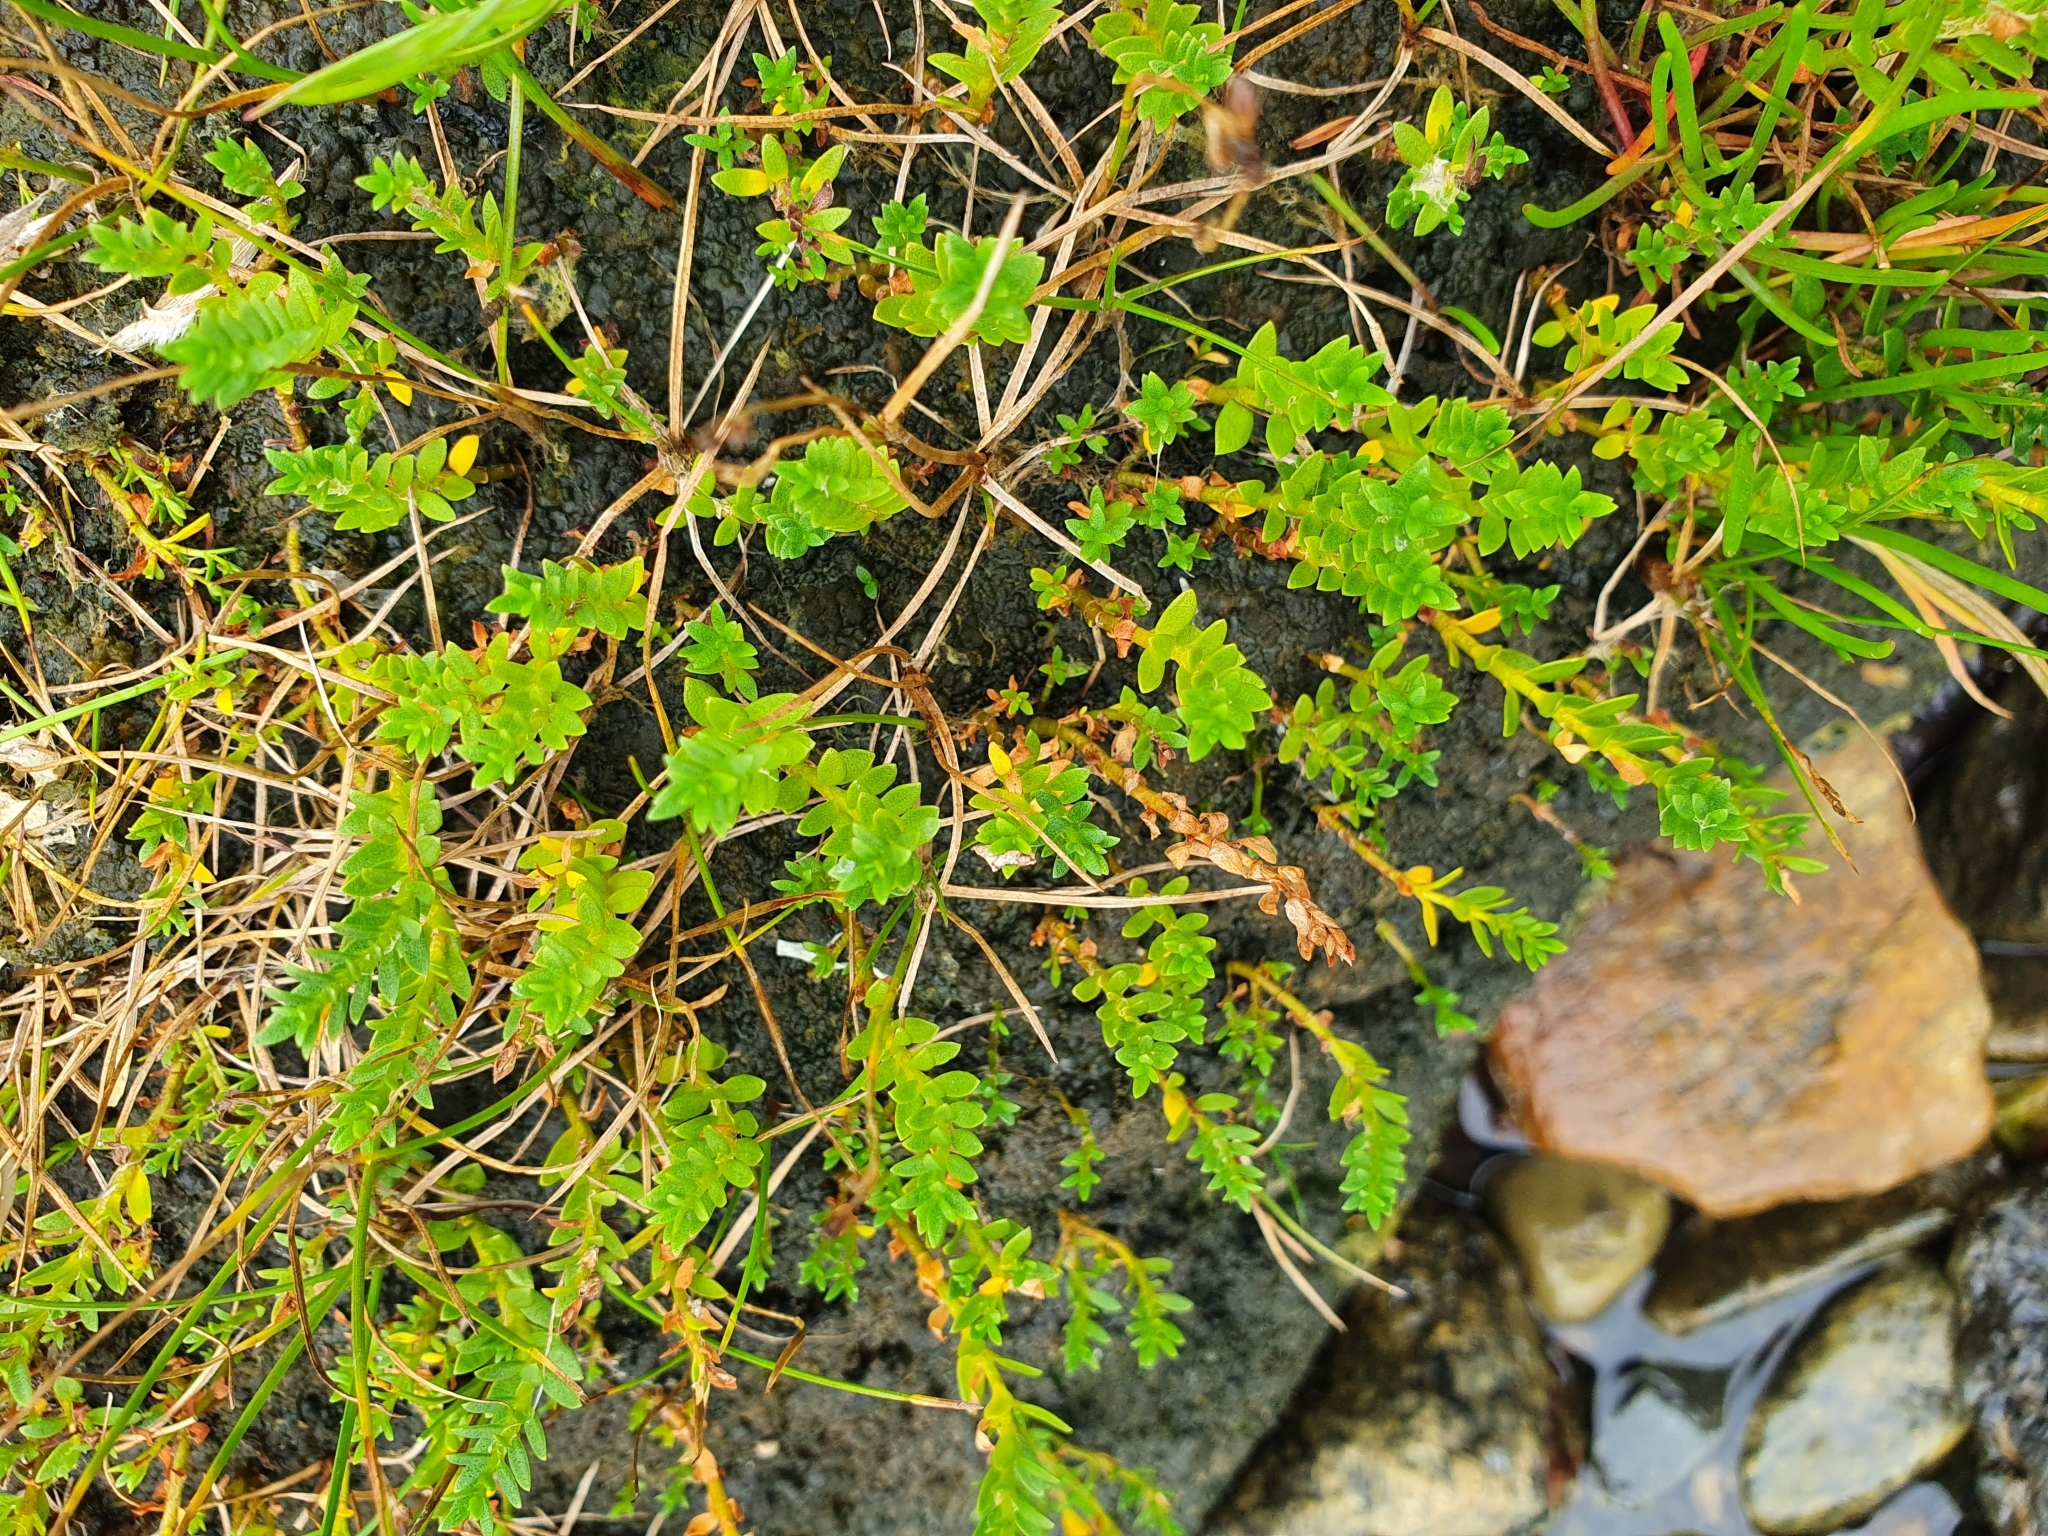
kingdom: Plantae
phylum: Tracheophyta
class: Magnoliopsida
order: Ericales
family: Primulaceae
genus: Lysimachia
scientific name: Lysimachia maritima
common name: Sea milkwort
